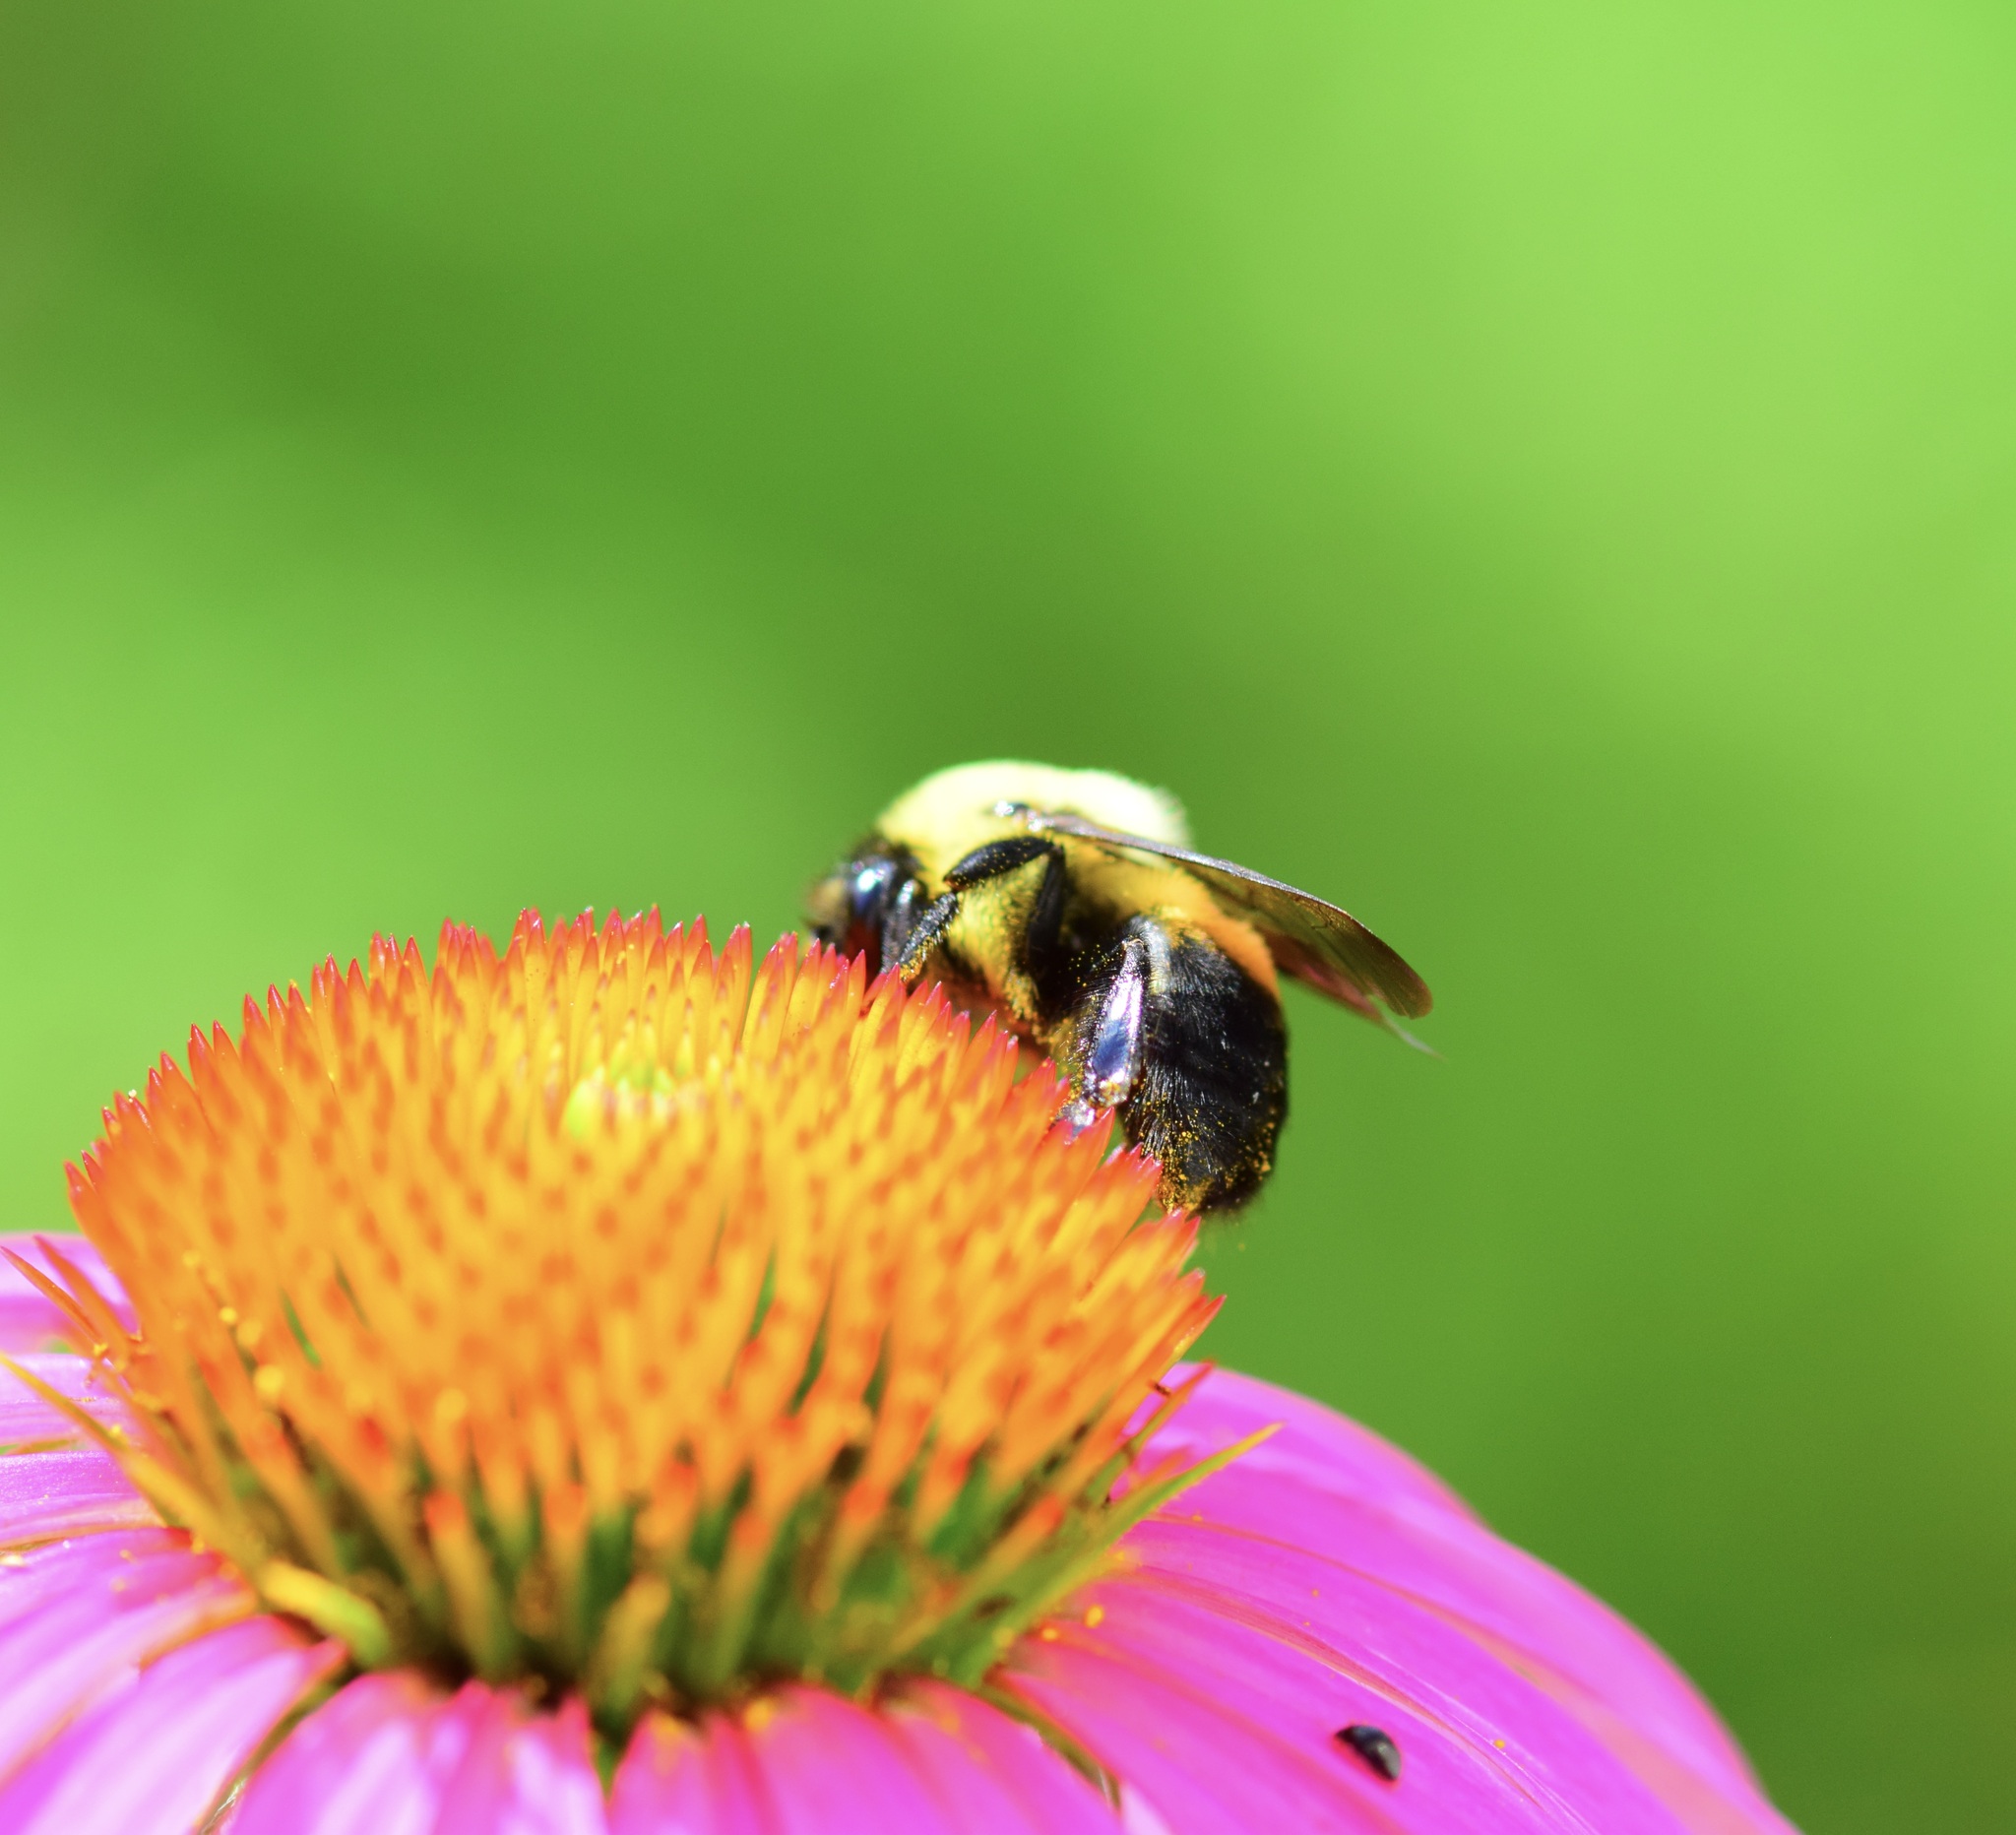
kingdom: Animalia
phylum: Arthropoda
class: Insecta
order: Hymenoptera
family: Apidae
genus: Bombus
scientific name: Bombus griseocollis
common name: Brown-belted bumble bee
